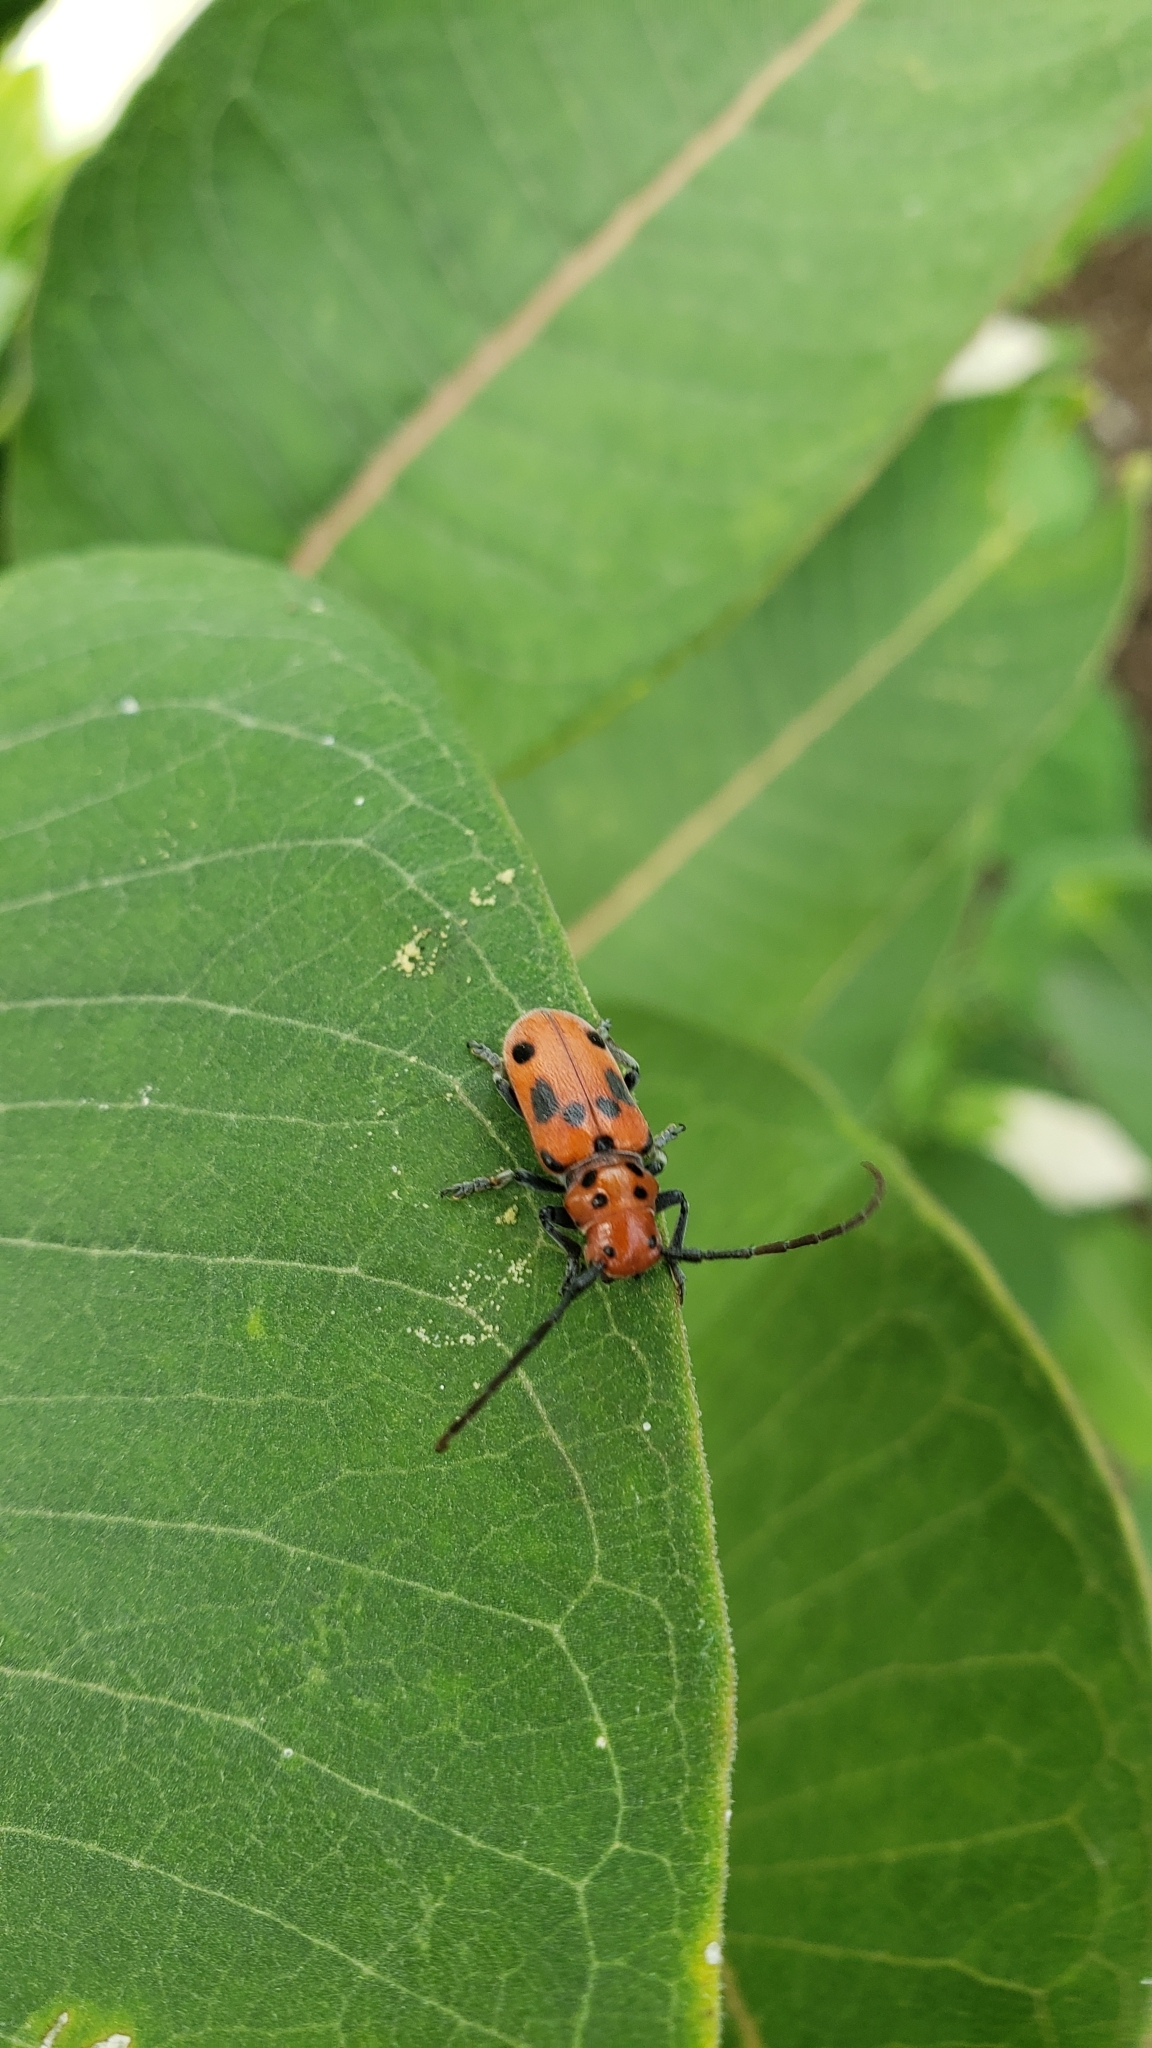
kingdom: Animalia
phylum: Arthropoda
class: Insecta
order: Coleoptera
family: Cerambycidae
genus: Tetraopes
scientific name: Tetraopes tetrophthalmus
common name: Red milkweed beetle
